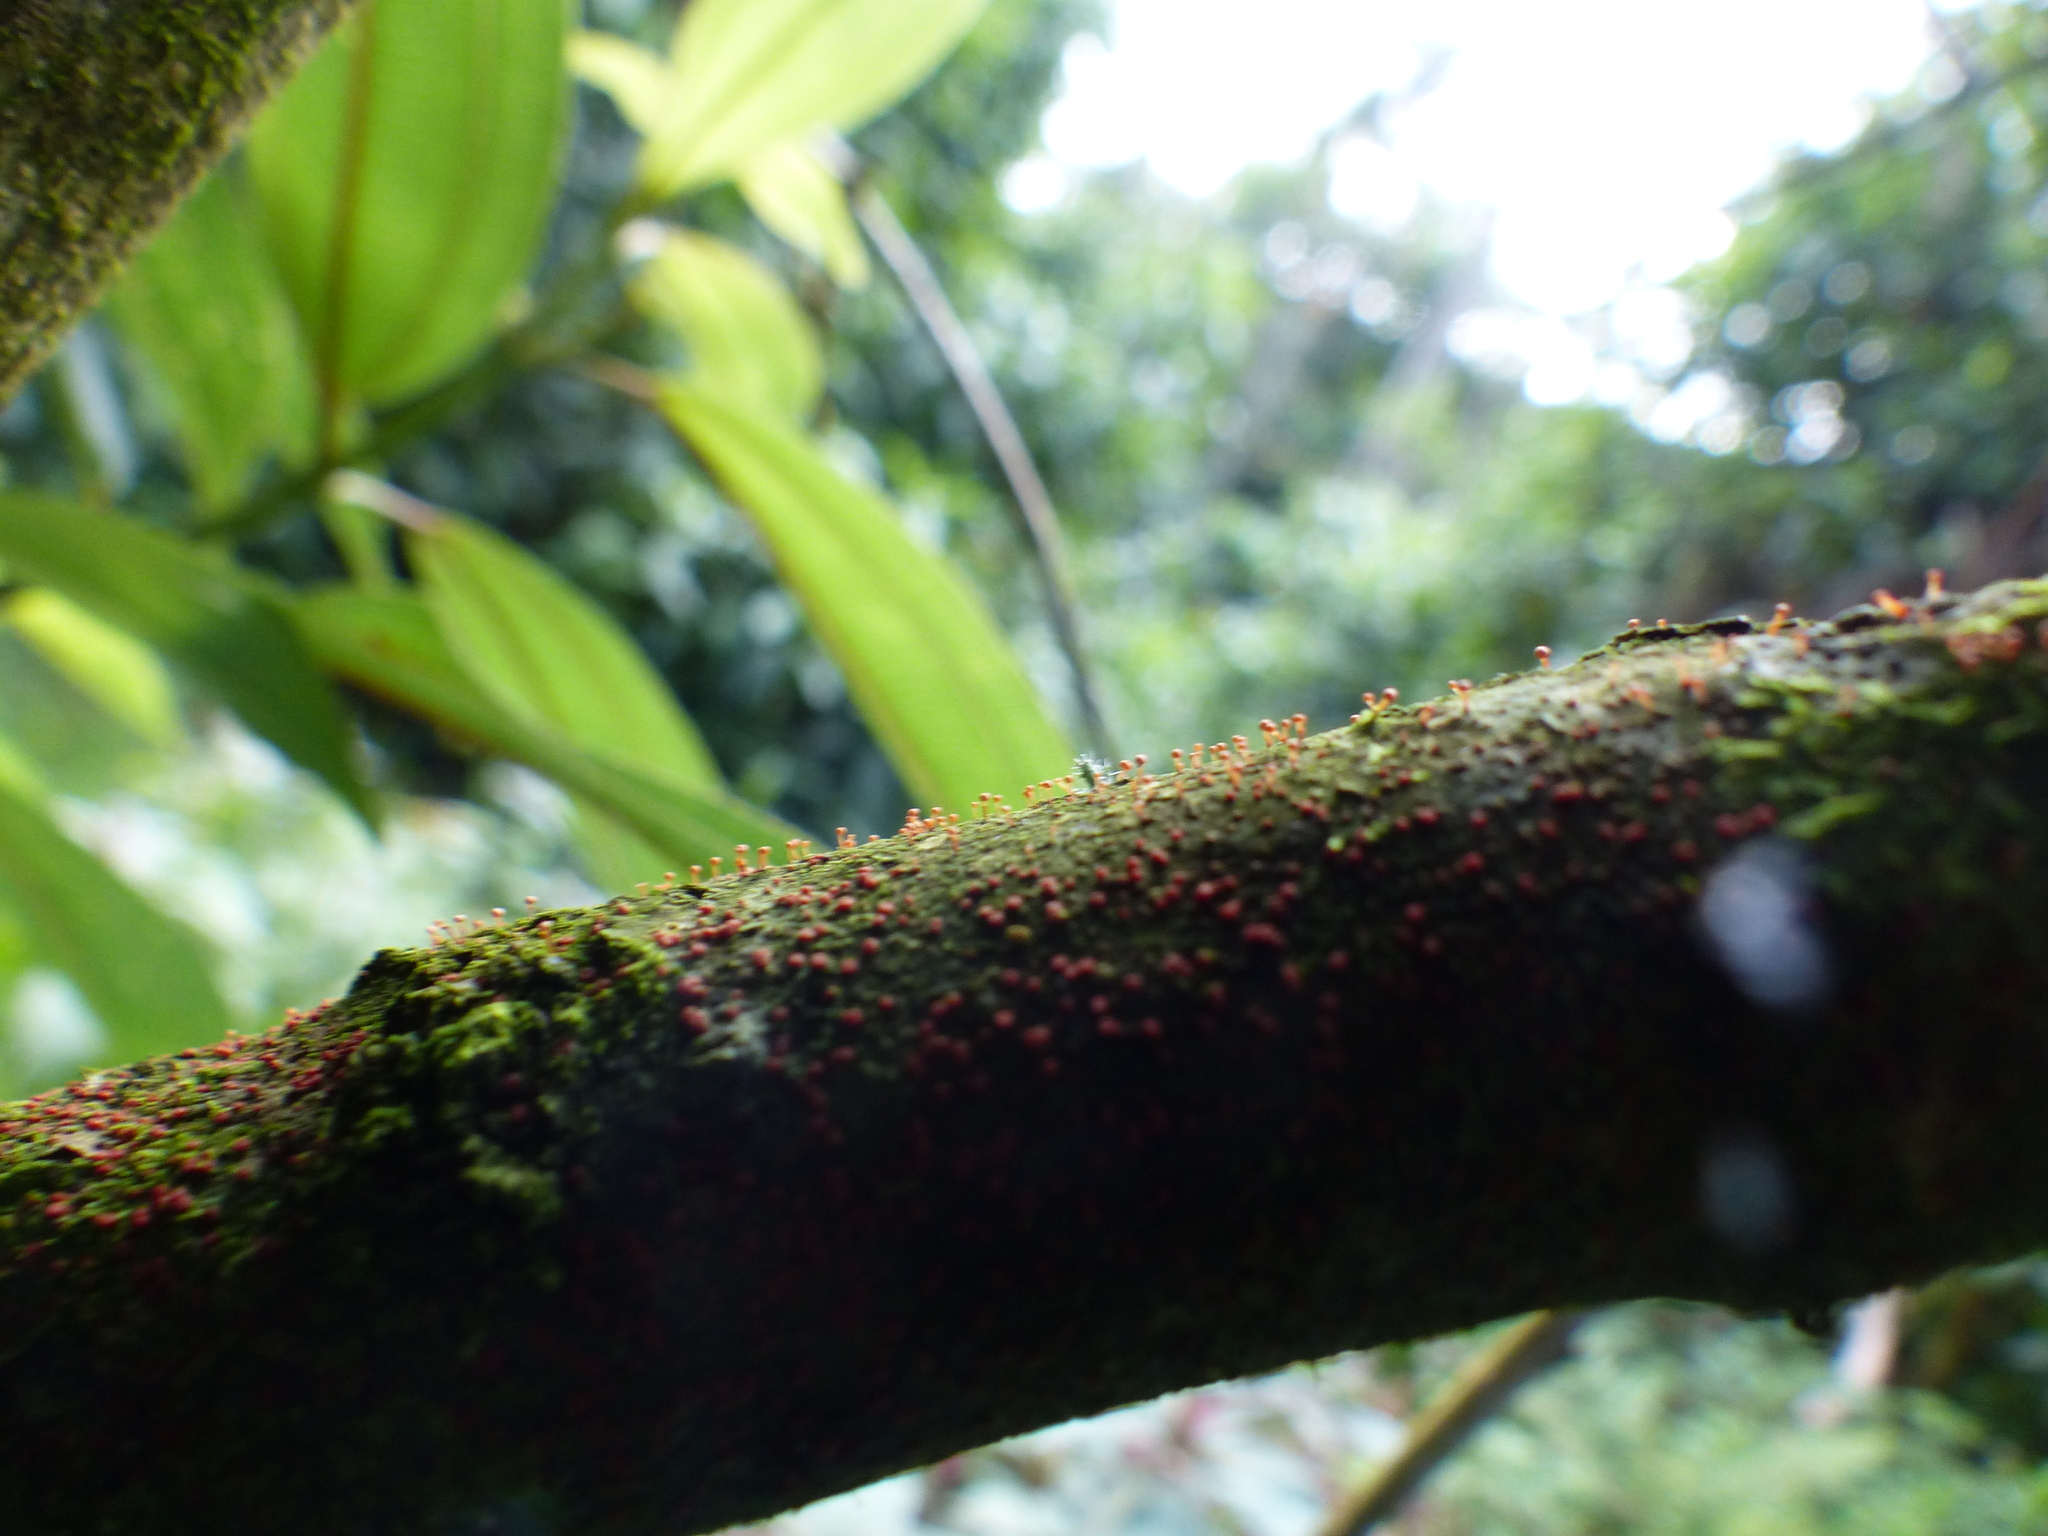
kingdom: Fungi
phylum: Ascomycota
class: Sordariomycetes
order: Hypocreales
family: Nectriaceae
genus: Nectria
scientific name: Nectria pseudotrichia
